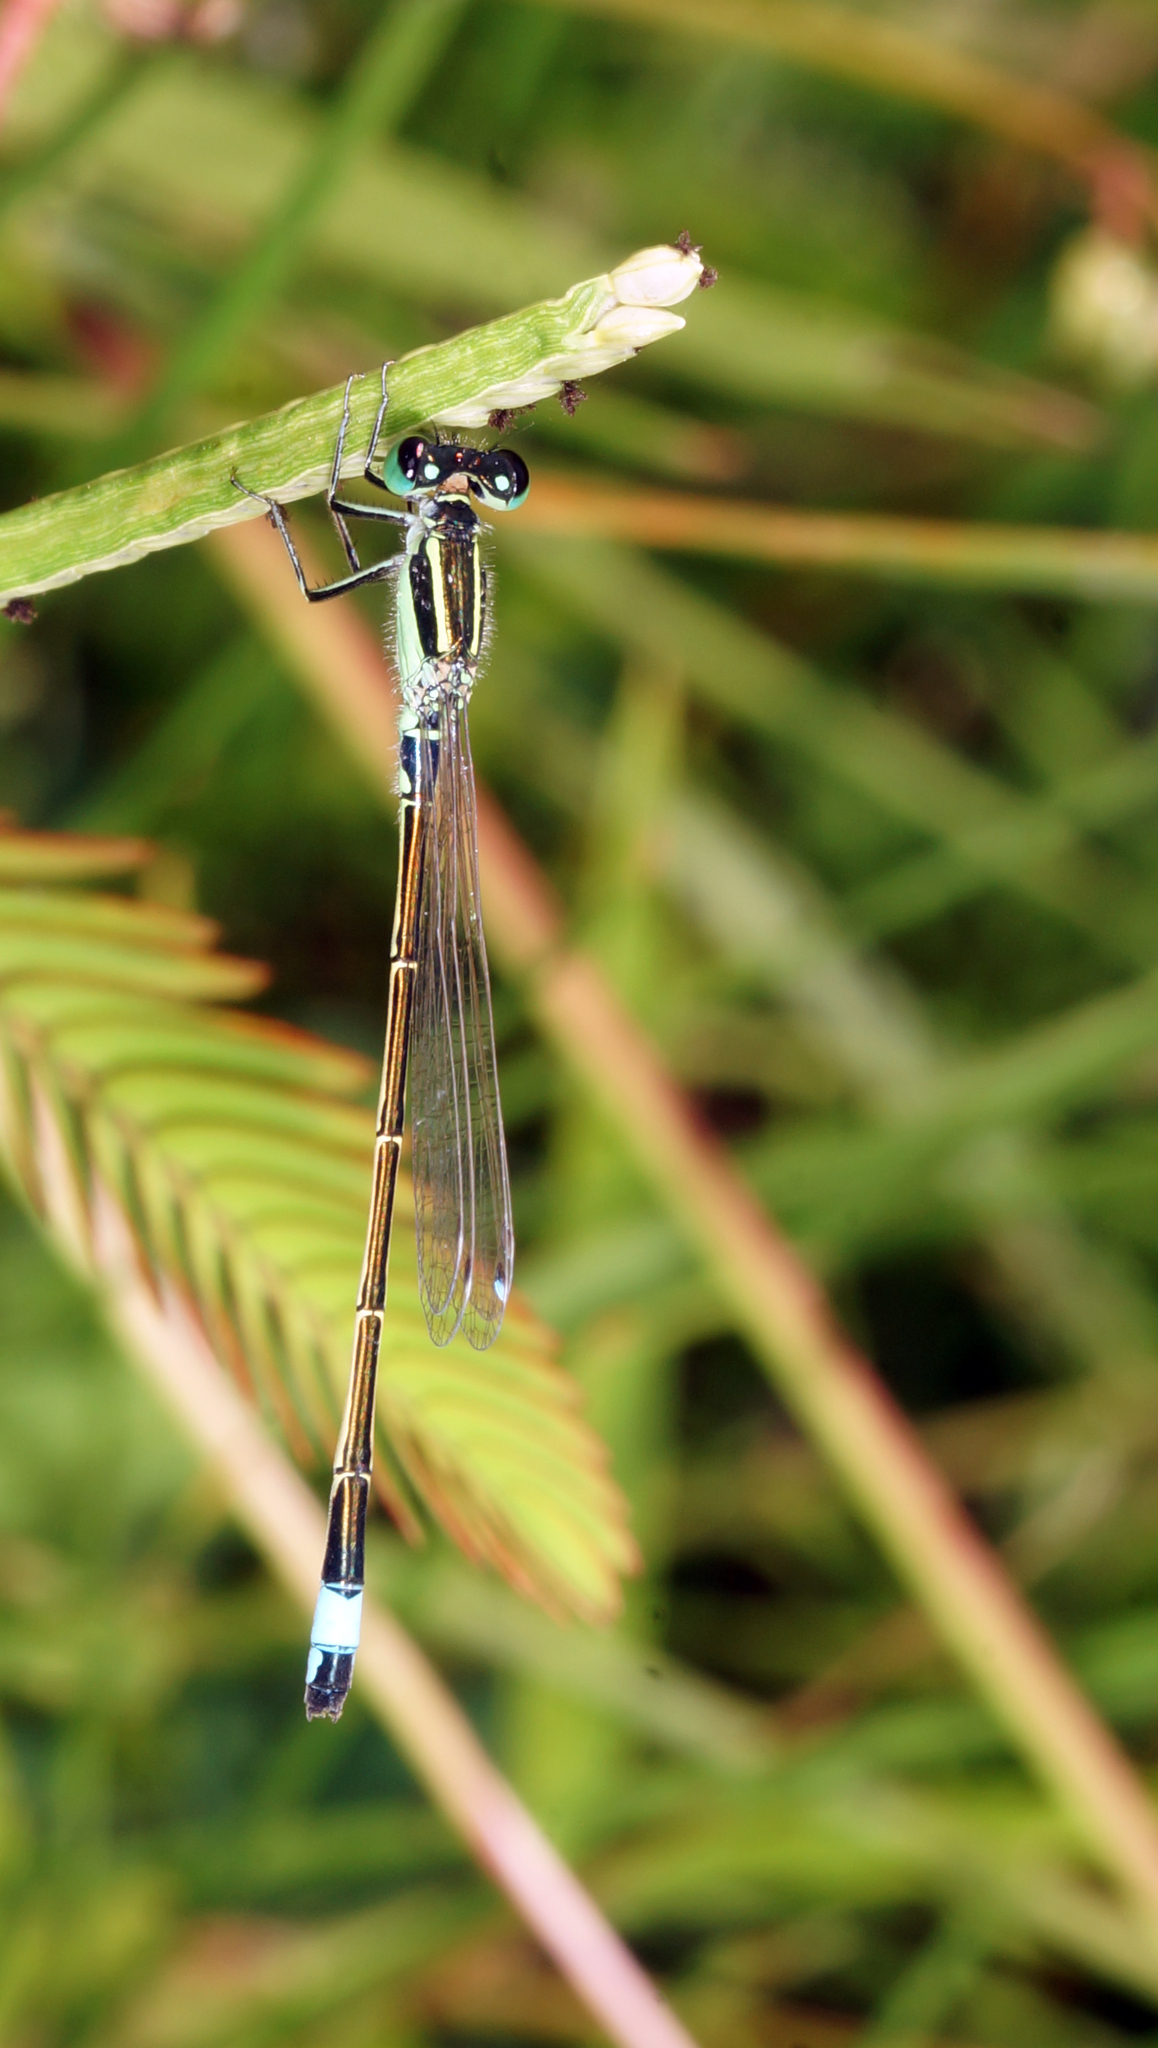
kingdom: Animalia
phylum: Arthropoda
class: Insecta
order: Odonata
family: Coenagrionidae
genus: Ischnura
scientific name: Ischnura senegalensis
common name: Tropical bluetail
